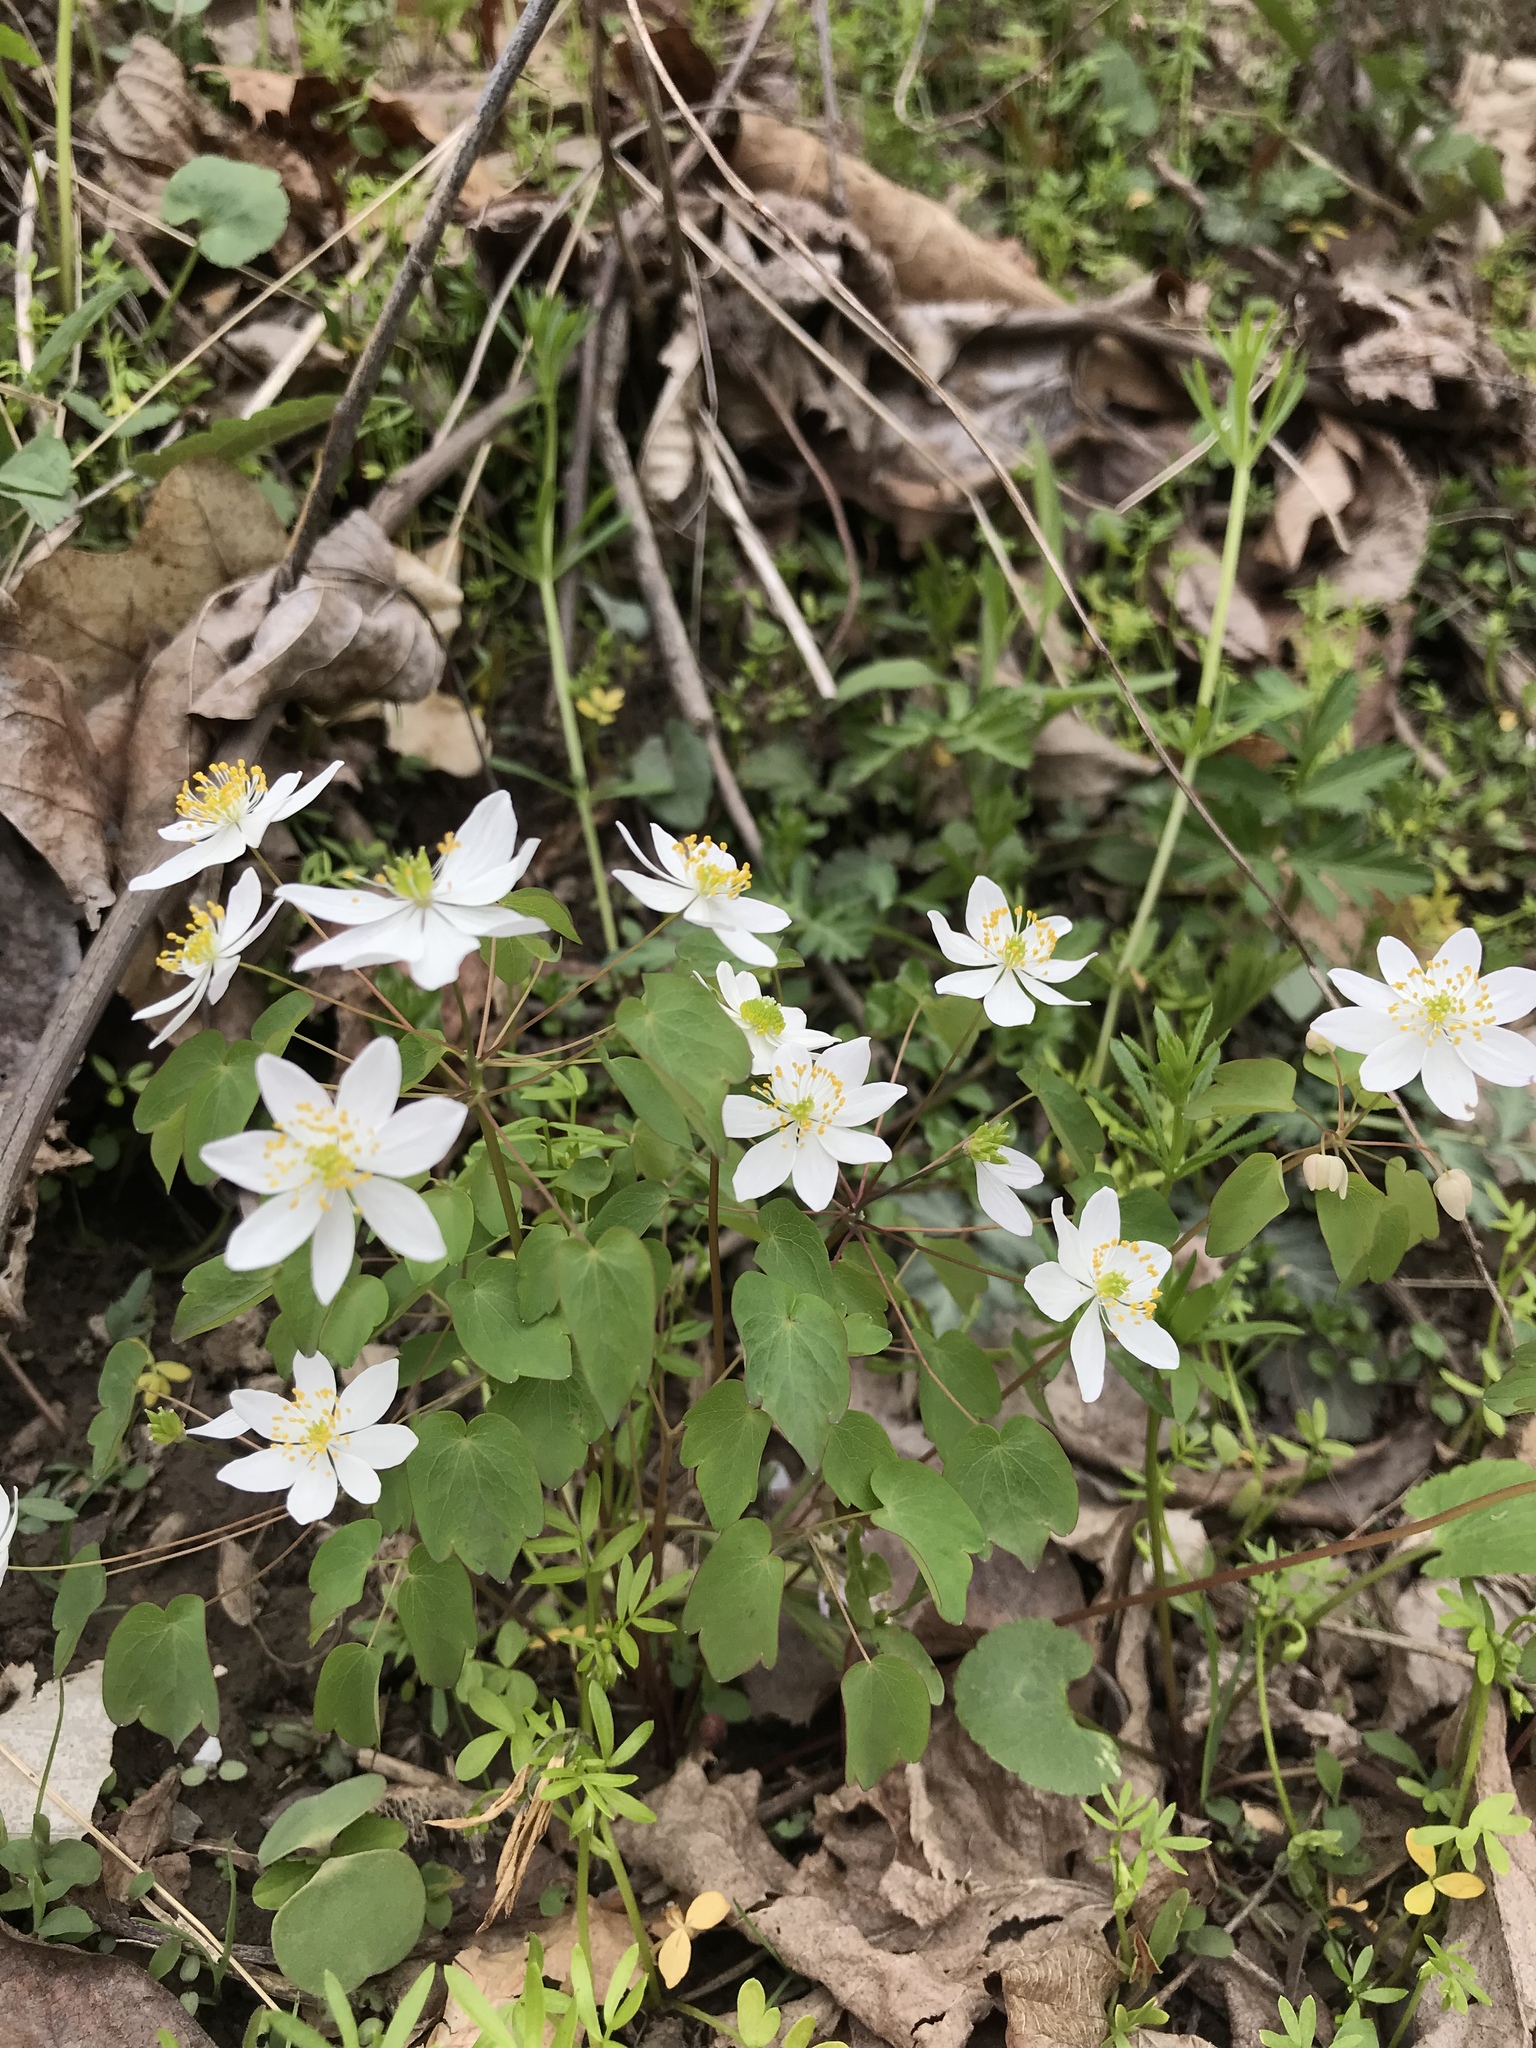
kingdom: Plantae
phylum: Tracheophyta
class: Magnoliopsida
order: Ranunculales
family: Ranunculaceae
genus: Thalictrum
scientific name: Thalictrum thalictroides
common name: Rue-anemone
